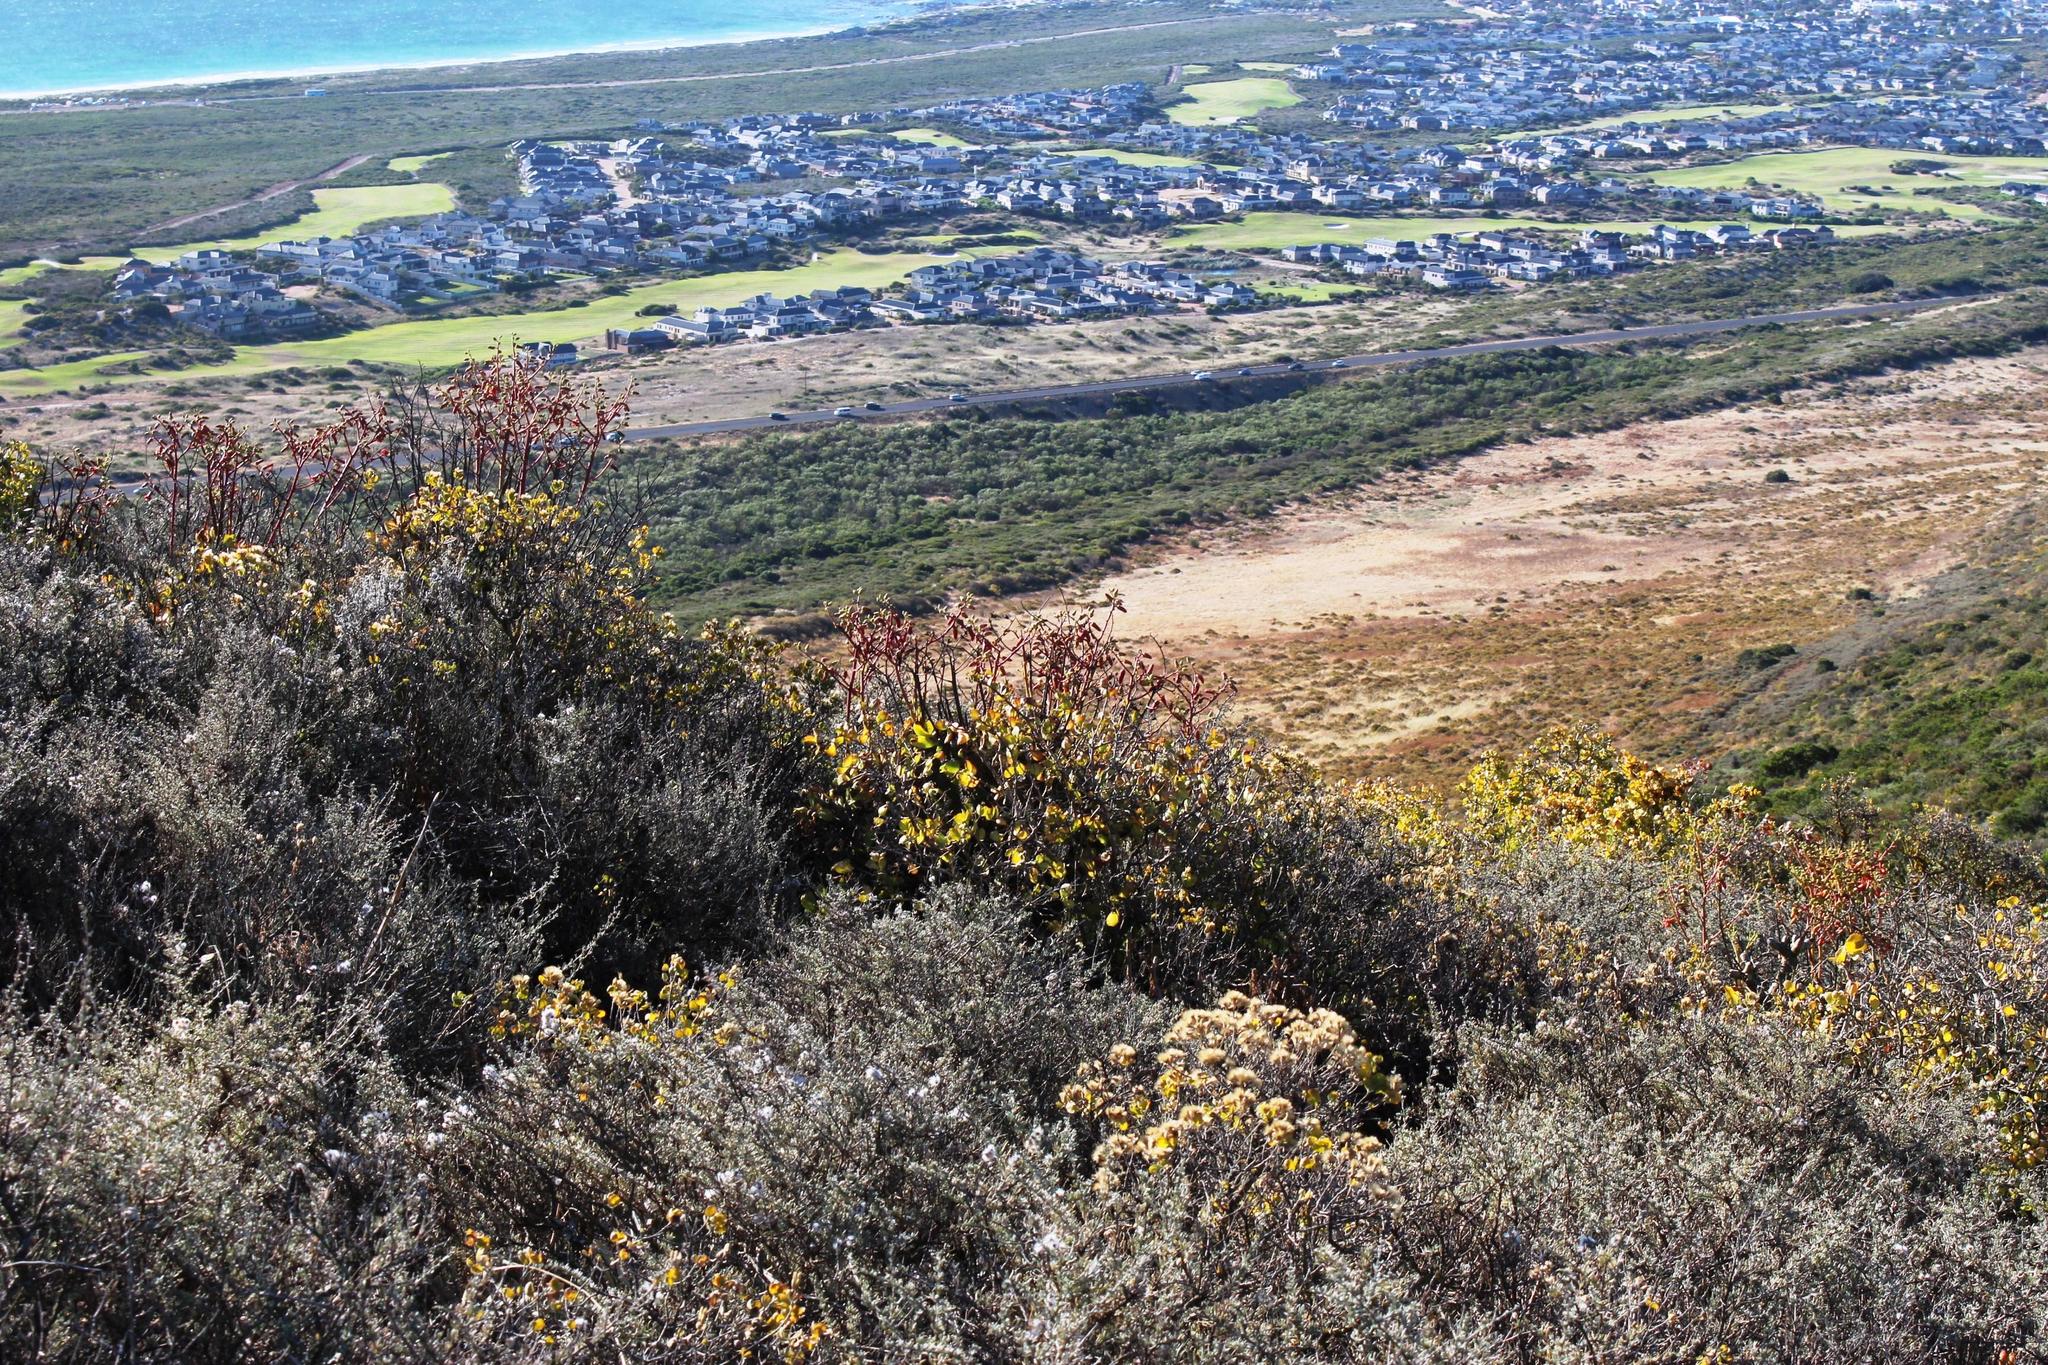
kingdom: Plantae
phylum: Tracheophyta
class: Magnoliopsida
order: Saxifragales
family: Crassulaceae
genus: Tylecodon
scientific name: Tylecodon paniculatus
